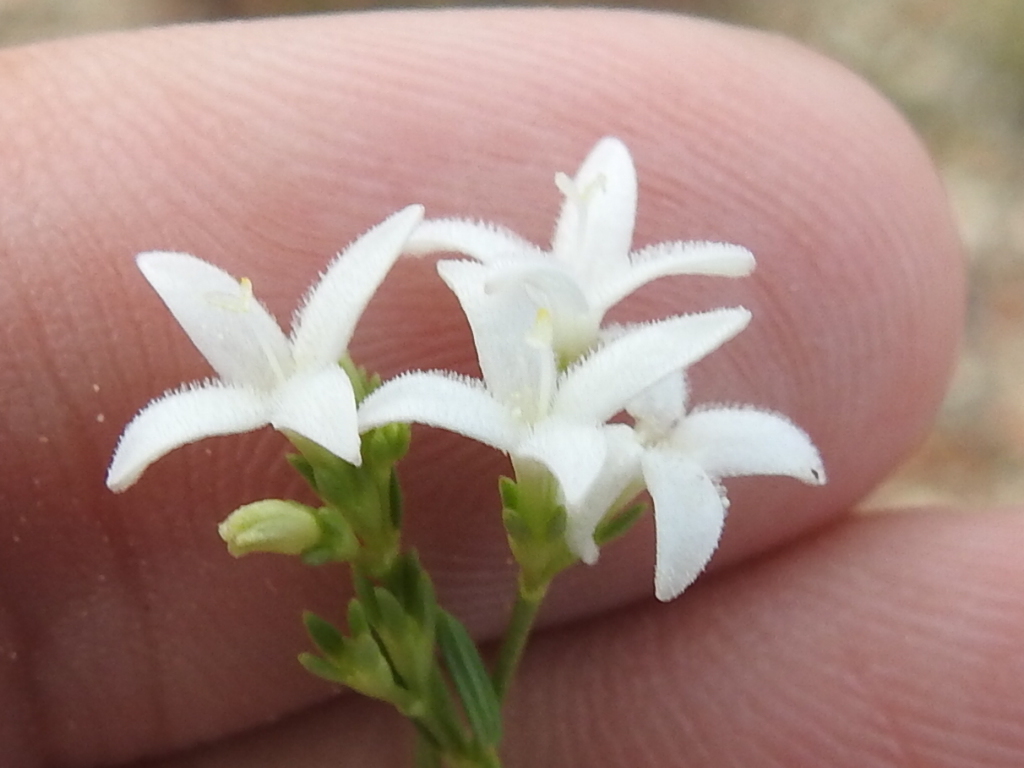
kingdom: Plantae
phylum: Tracheophyta
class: Magnoliopsida
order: Gentianales
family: Rubiaceae
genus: Stenaria
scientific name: Stenaria nigricans
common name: Diamondflowers
